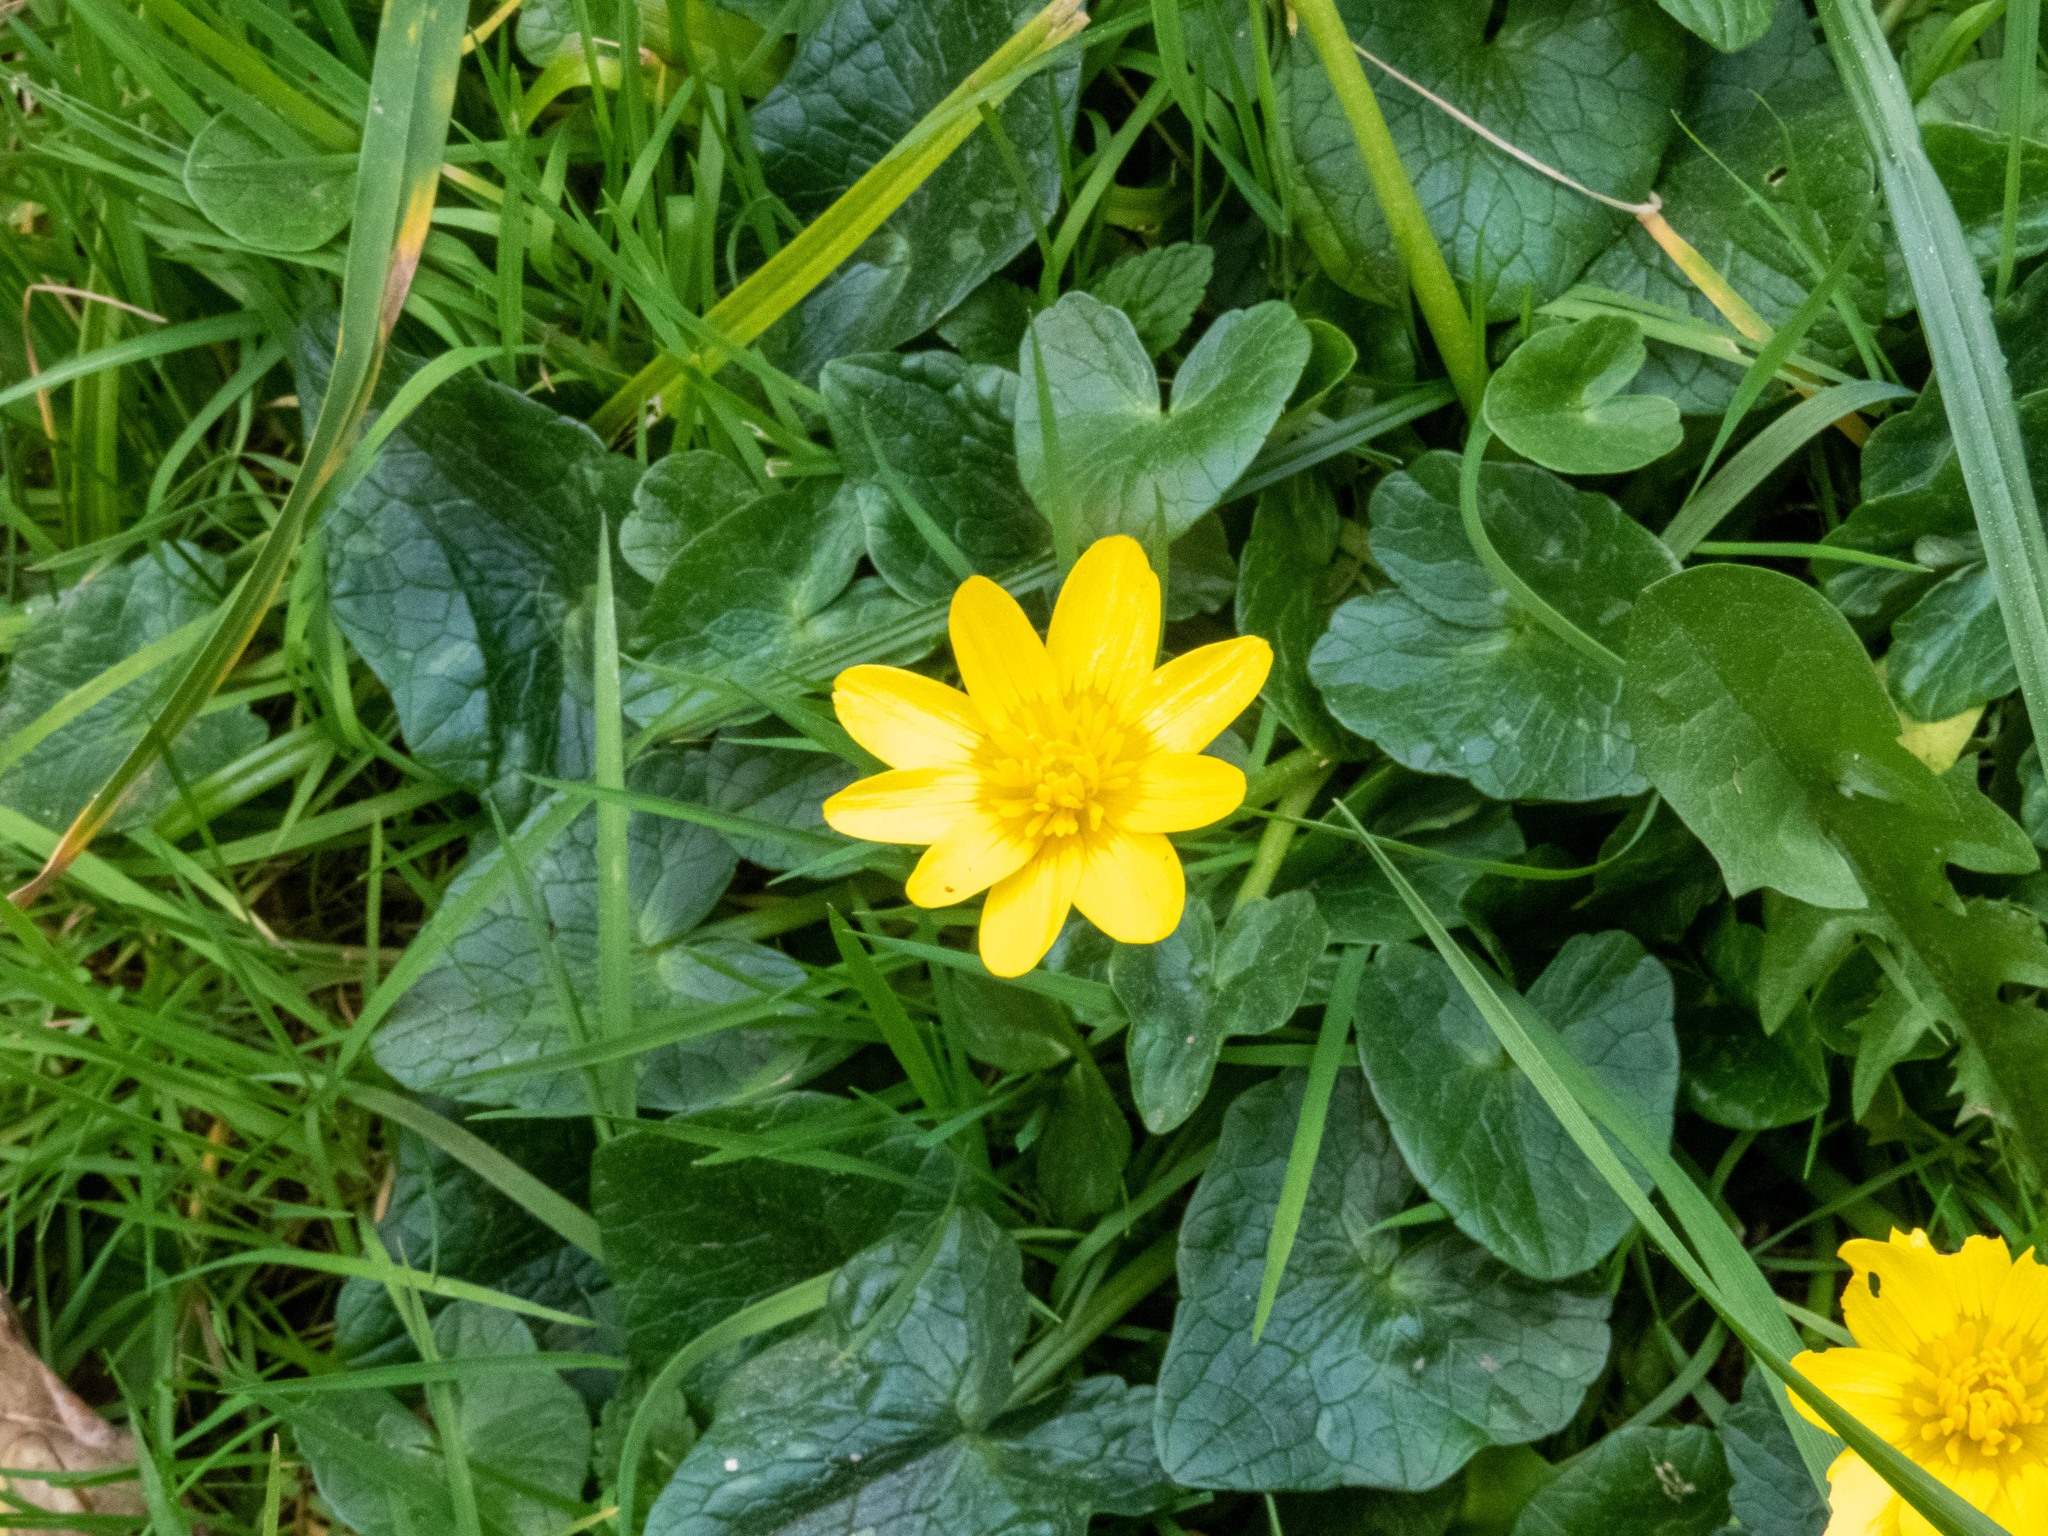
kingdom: Plantae
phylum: Tracheophyta
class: Magnoliopsida
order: Ranunculales
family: Ranunculaceae
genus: Ficaria
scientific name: Ficaria verna
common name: Lesser celandine
